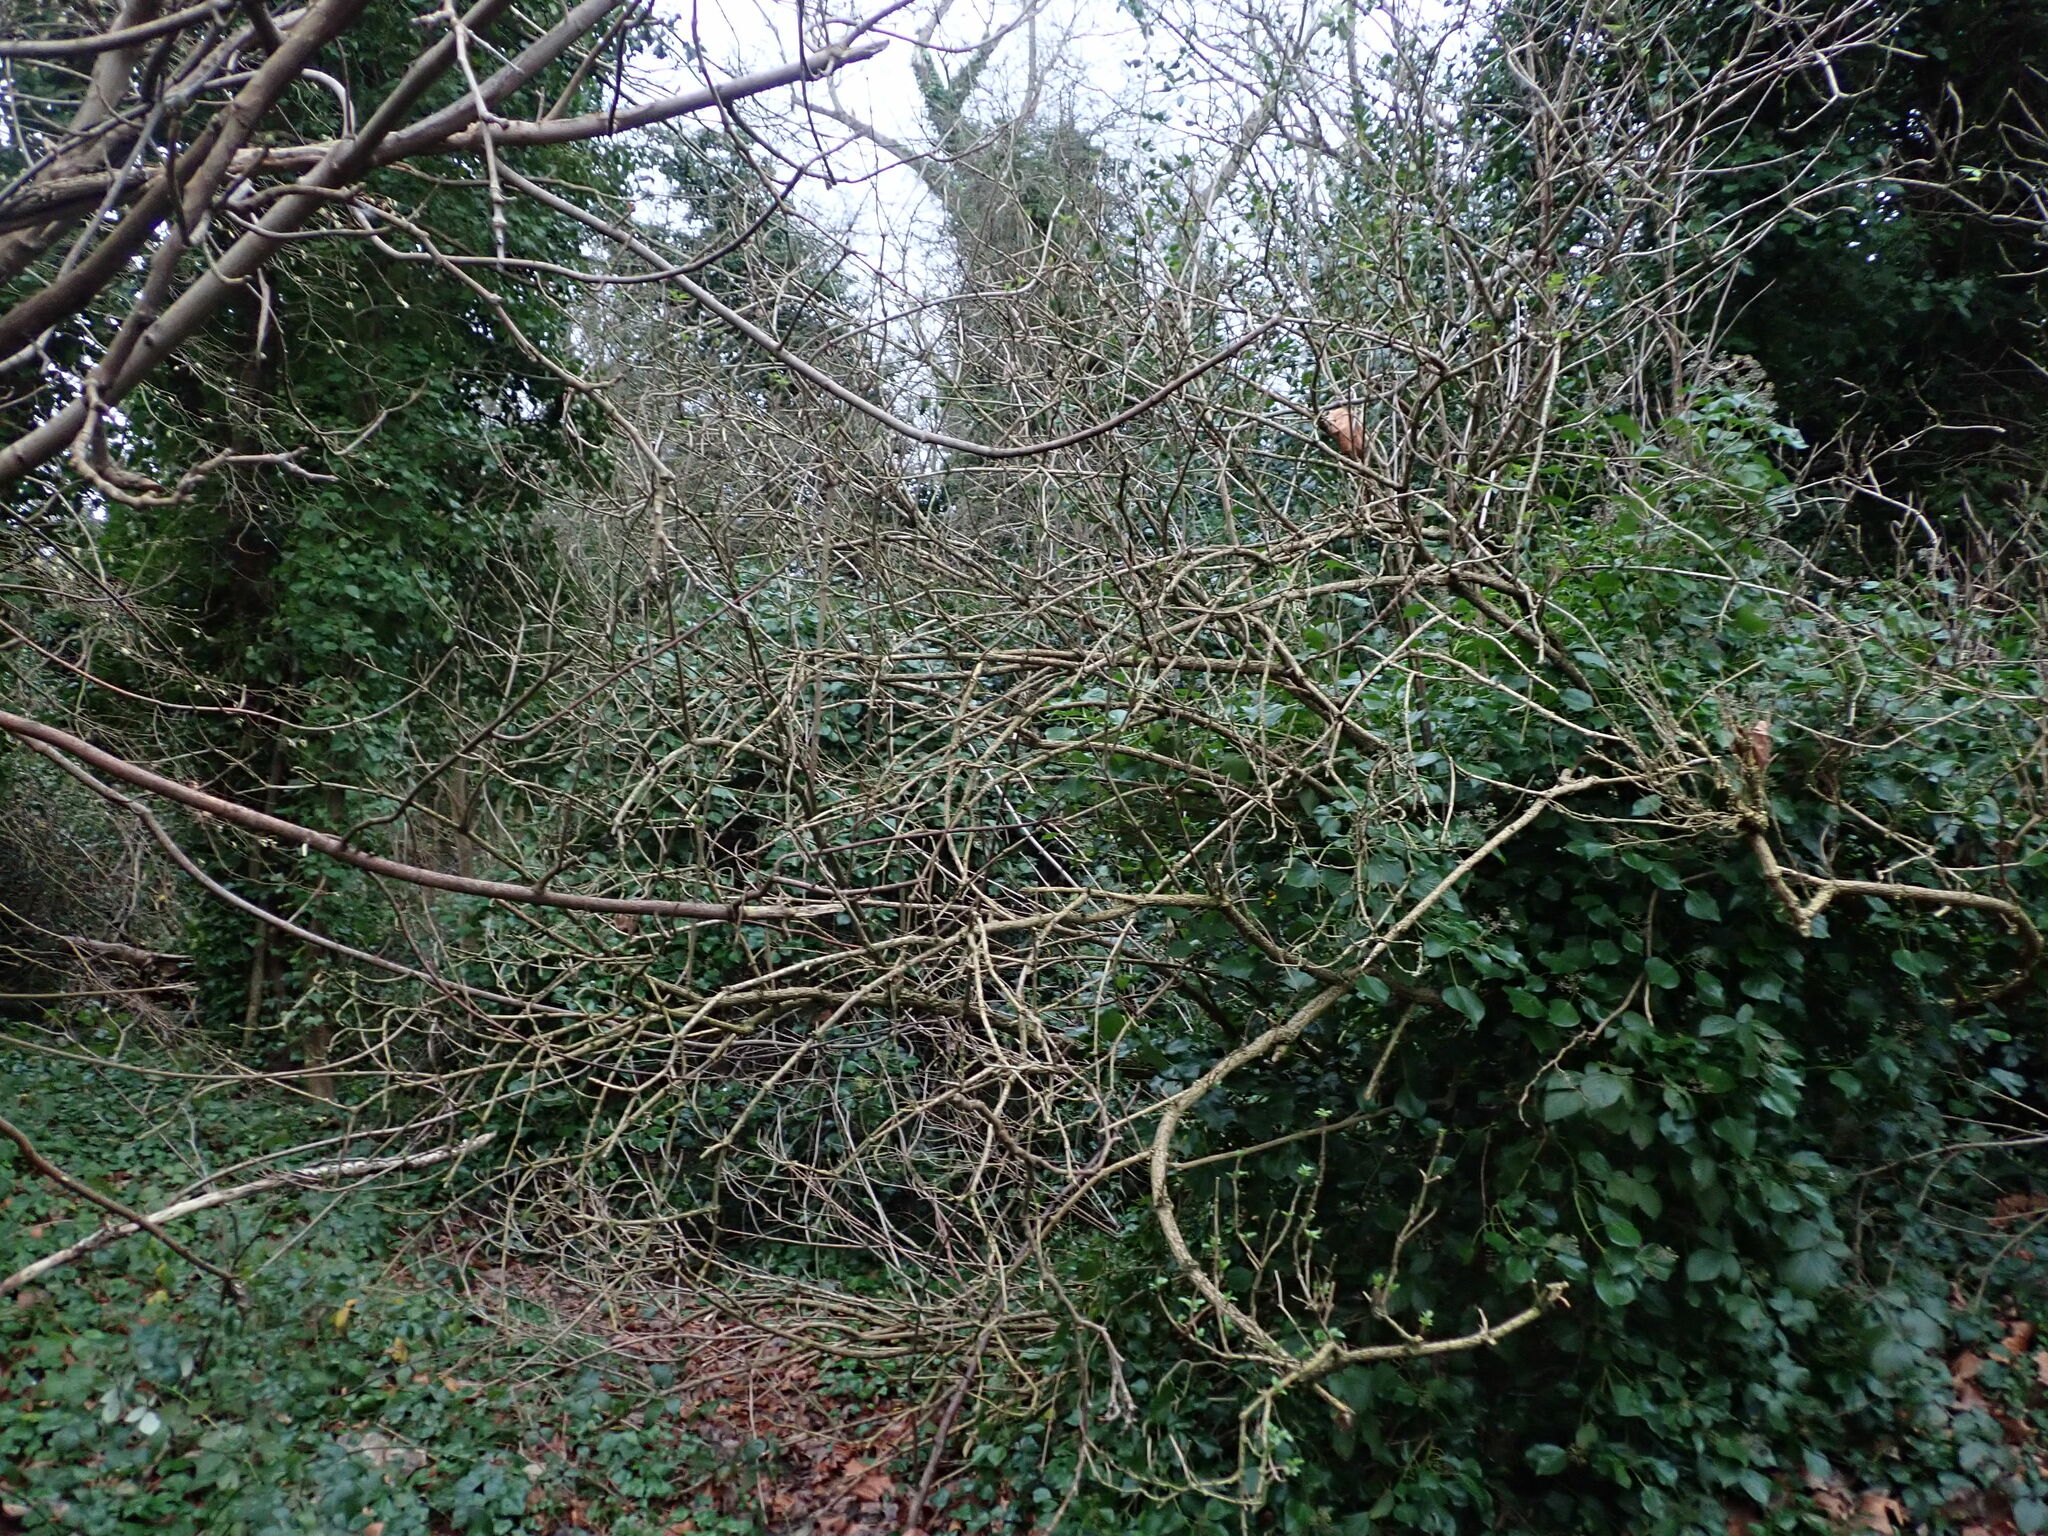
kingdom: Plantae
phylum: Tracheophyta
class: Magnoliopsida
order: Dipsacales
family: Viburnaceae
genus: Sambucus
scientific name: Sambucus nigra
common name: Elder
